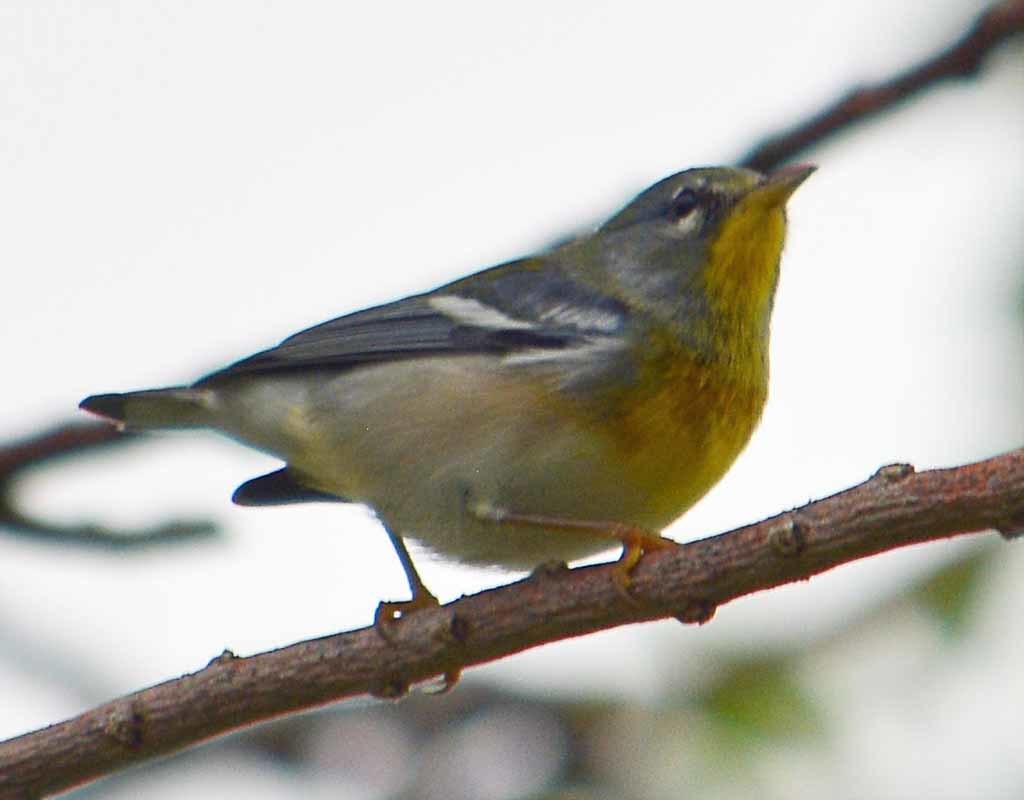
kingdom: Animalia
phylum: Chordata
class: Aves
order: Passeriformes
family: Parulidae
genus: Setophaga
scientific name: Setophaga americana
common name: Northern parula
